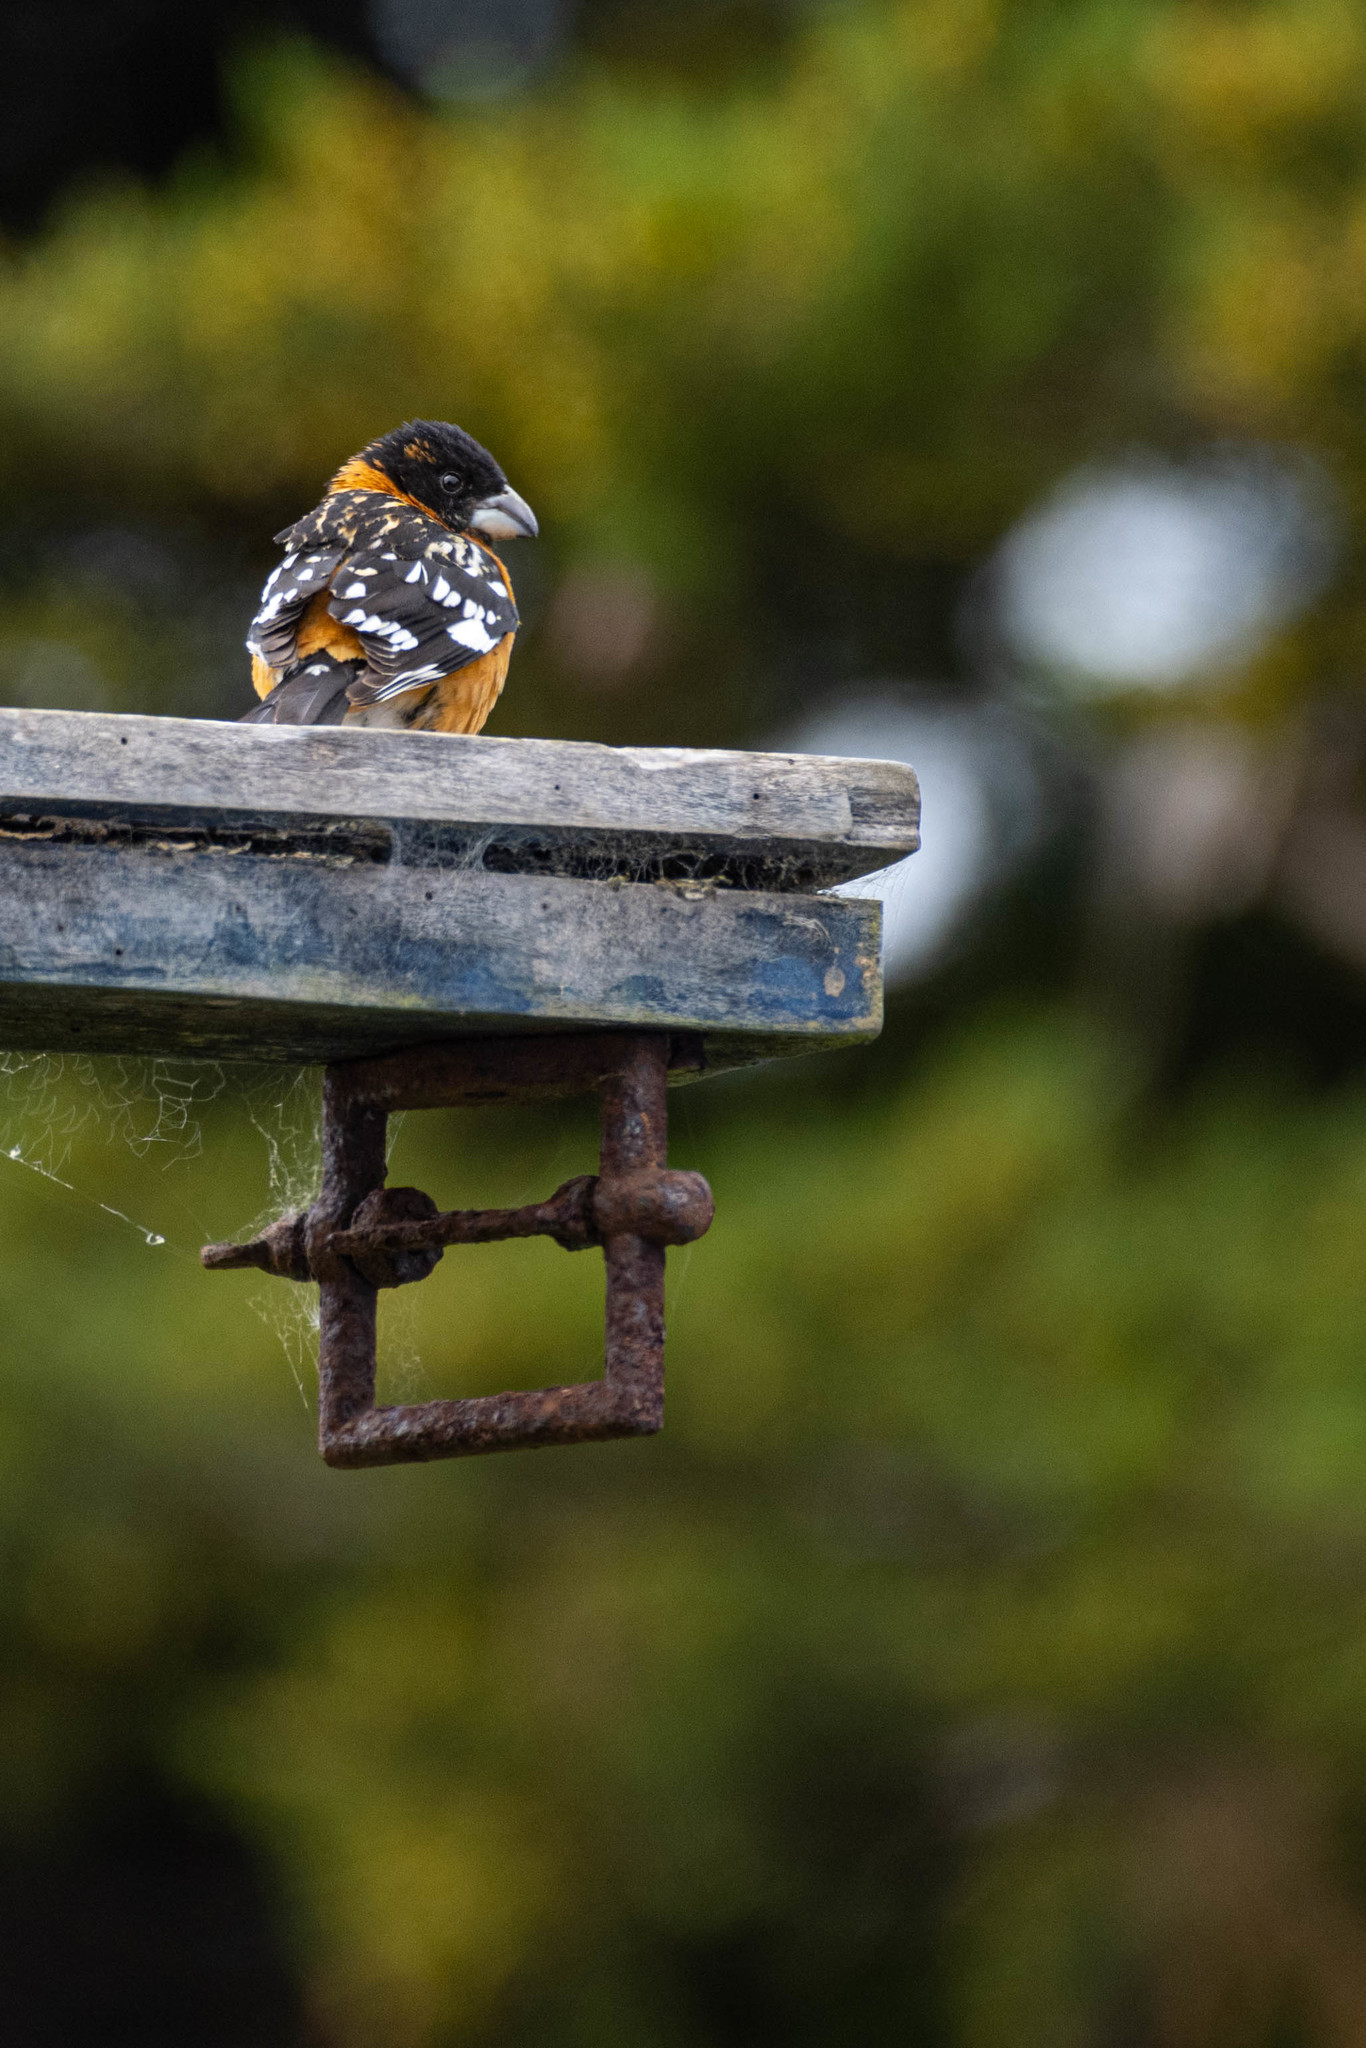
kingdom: Animalia
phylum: Chordata
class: Aves
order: Passeriformes
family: Cardinalidae
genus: Pheucticus
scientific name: Pheucticus melanocephalus
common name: Black-headed grosbeak
